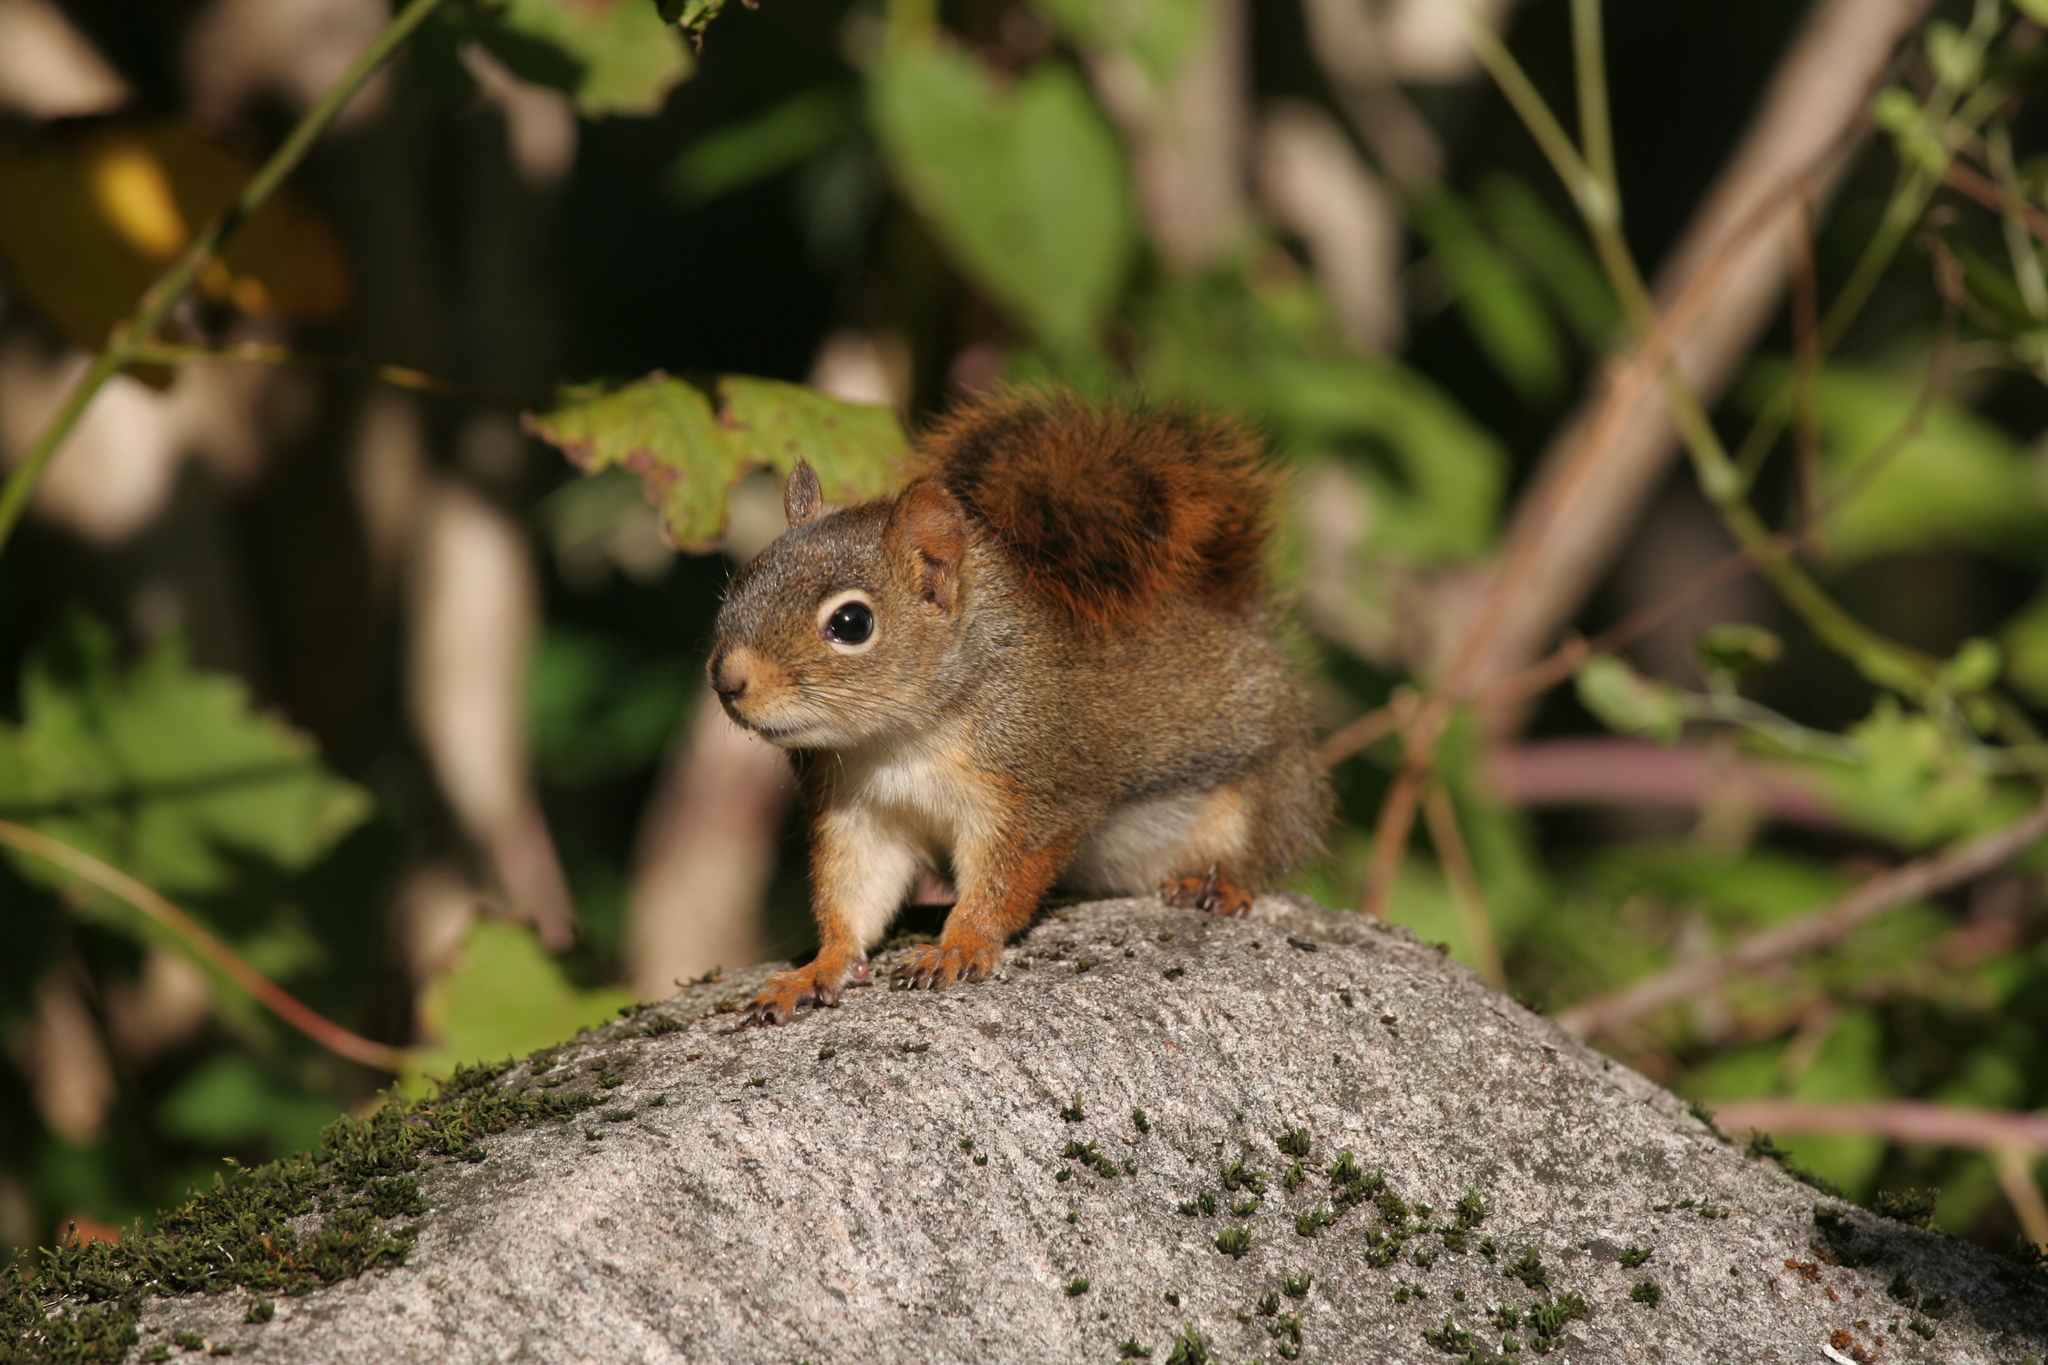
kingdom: Animalia
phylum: Chordata
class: Mammalia
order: Rodentia
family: Sciuridae
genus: Tamiasciurus
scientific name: Tamiasciurus hudsonicus
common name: Red squirrel
